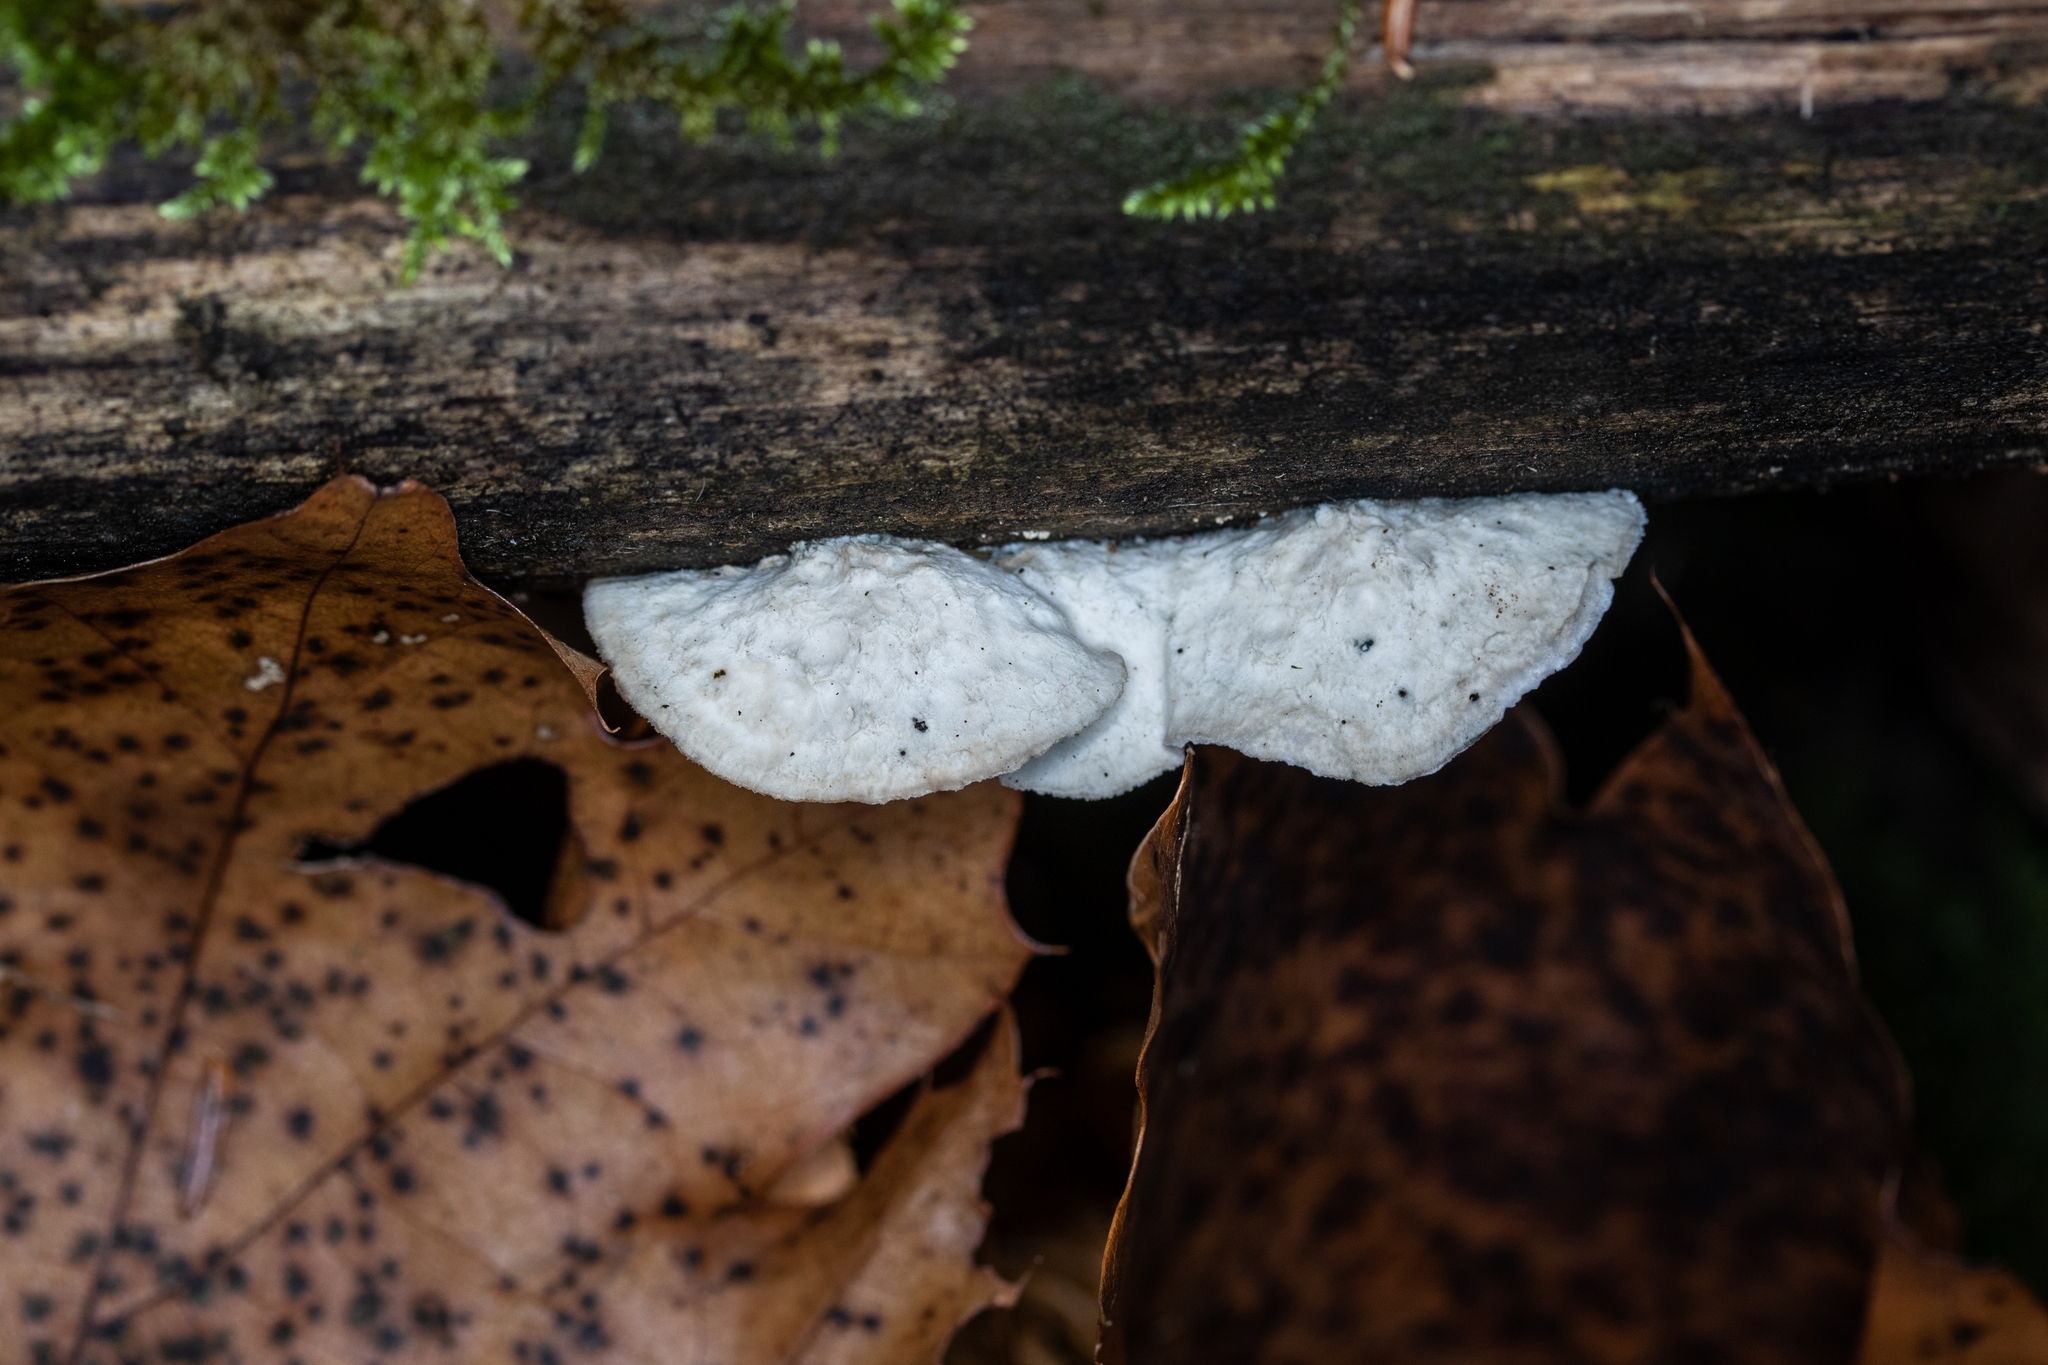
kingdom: Fungi
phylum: Basidiomycota
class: Agaricomycetes
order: Polyporales
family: Polyporaceae
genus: Cyanosporus
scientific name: Cyanosporus livens
